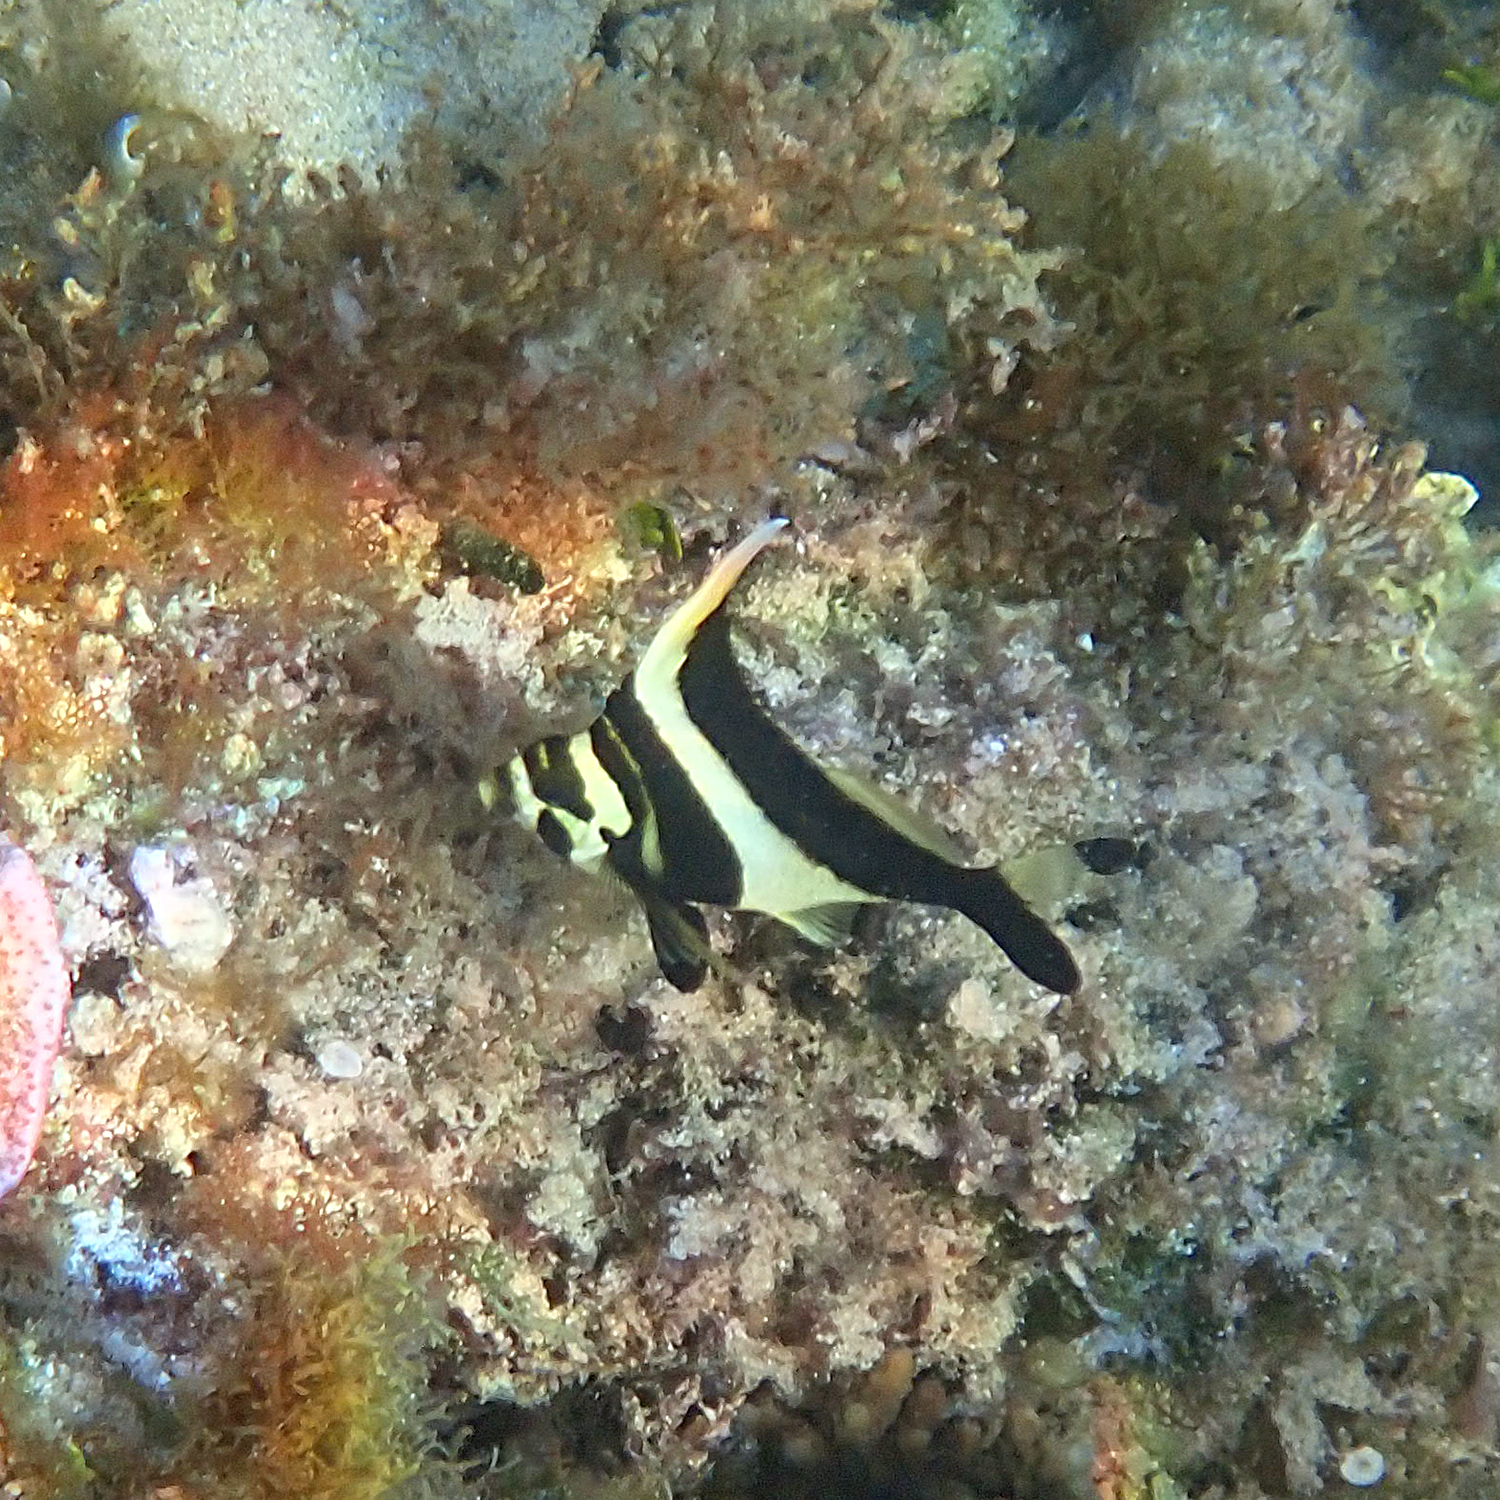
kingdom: Animalia
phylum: Chordata
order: Perciformes
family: Cheilodactylidae
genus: Cheilodactylus
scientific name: Cheilodactylus francisi
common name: Blacktip morwong
